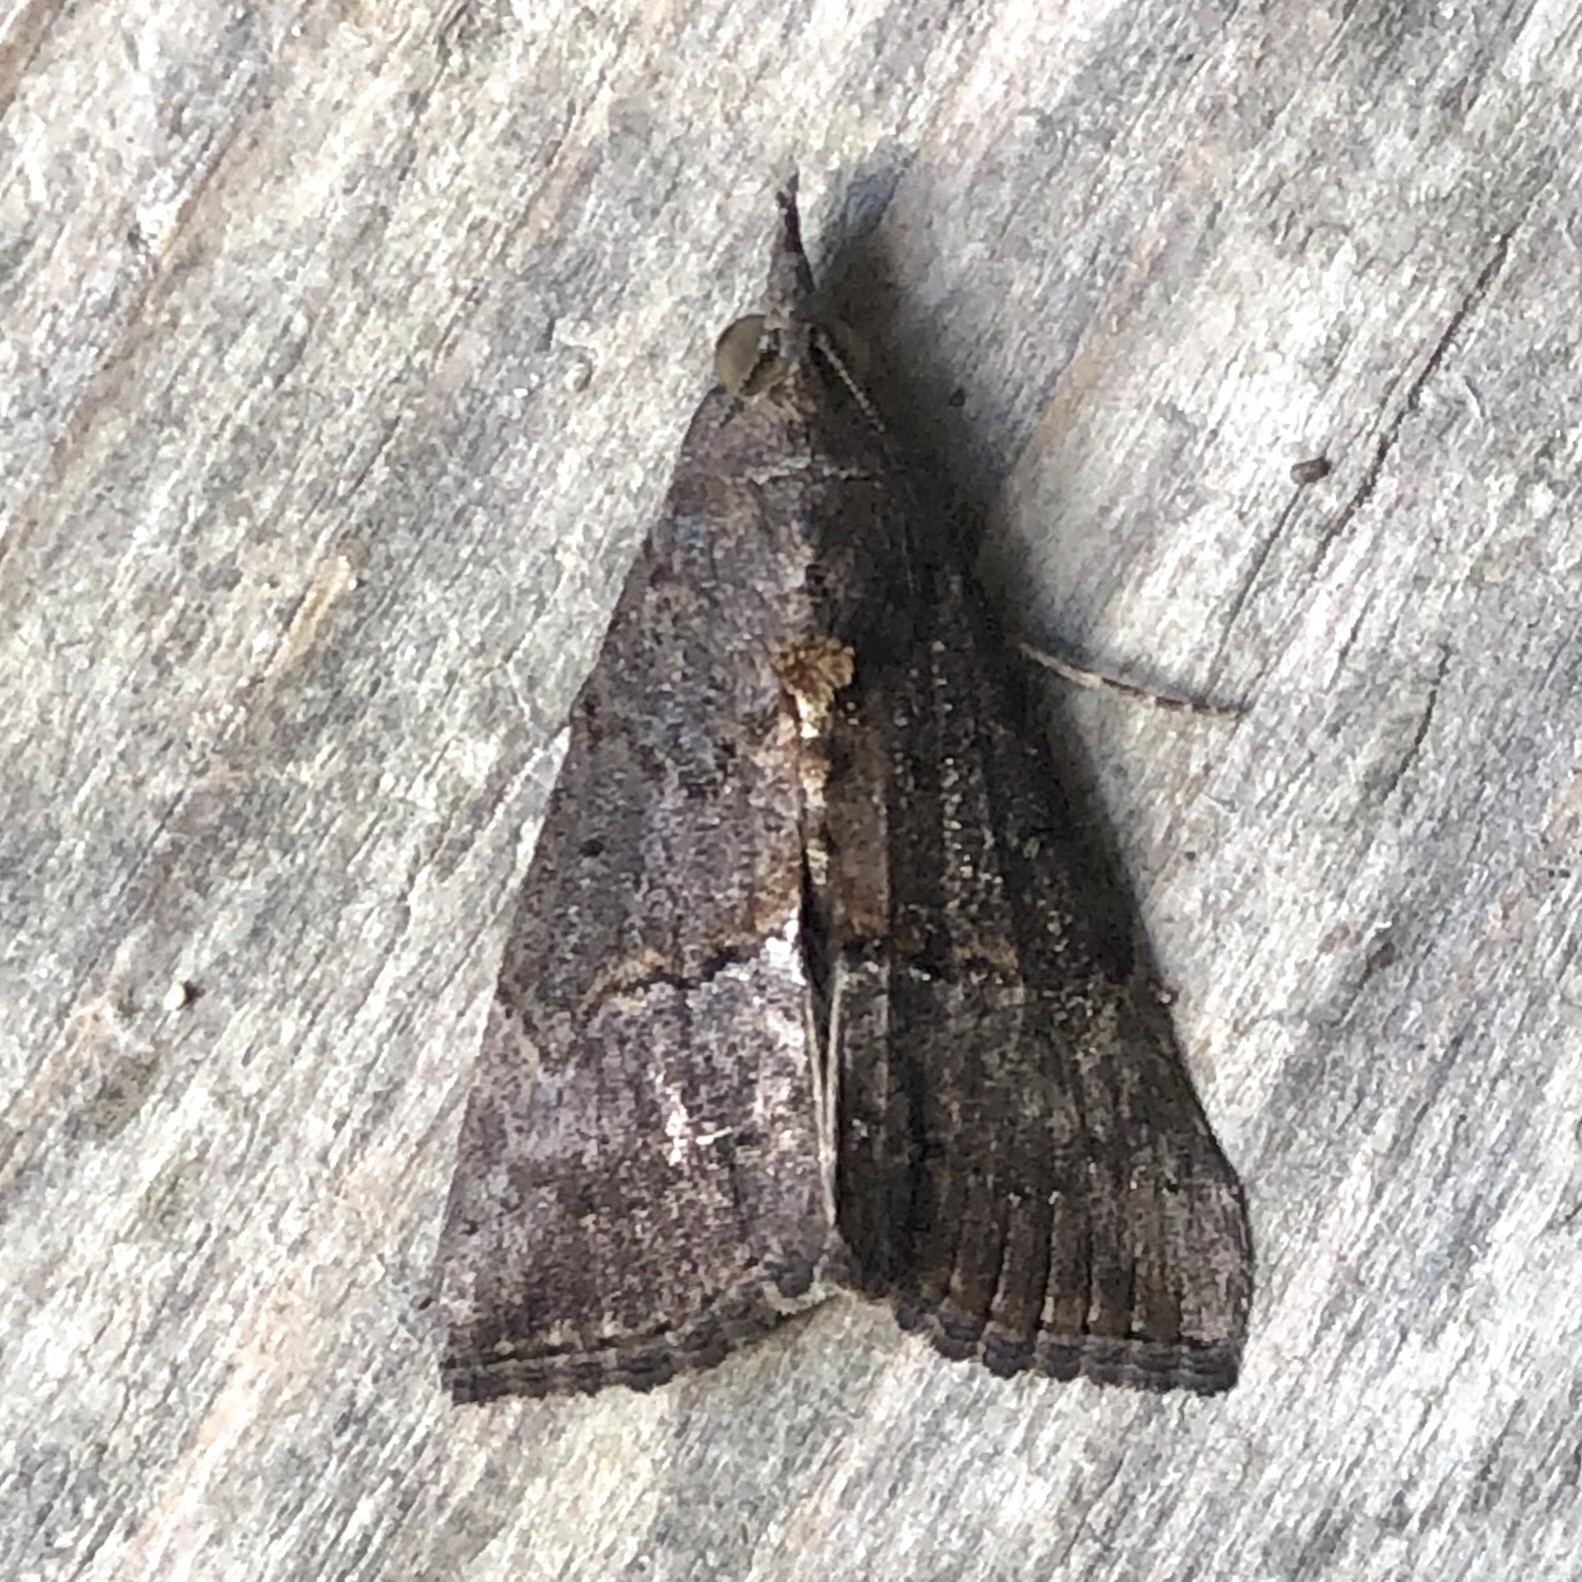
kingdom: Animalia
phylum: Arthropoda
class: Insecta
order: Lepidoptera
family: Erebidae
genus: Hypena
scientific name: Hypena scabra
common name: Green cloverworm
